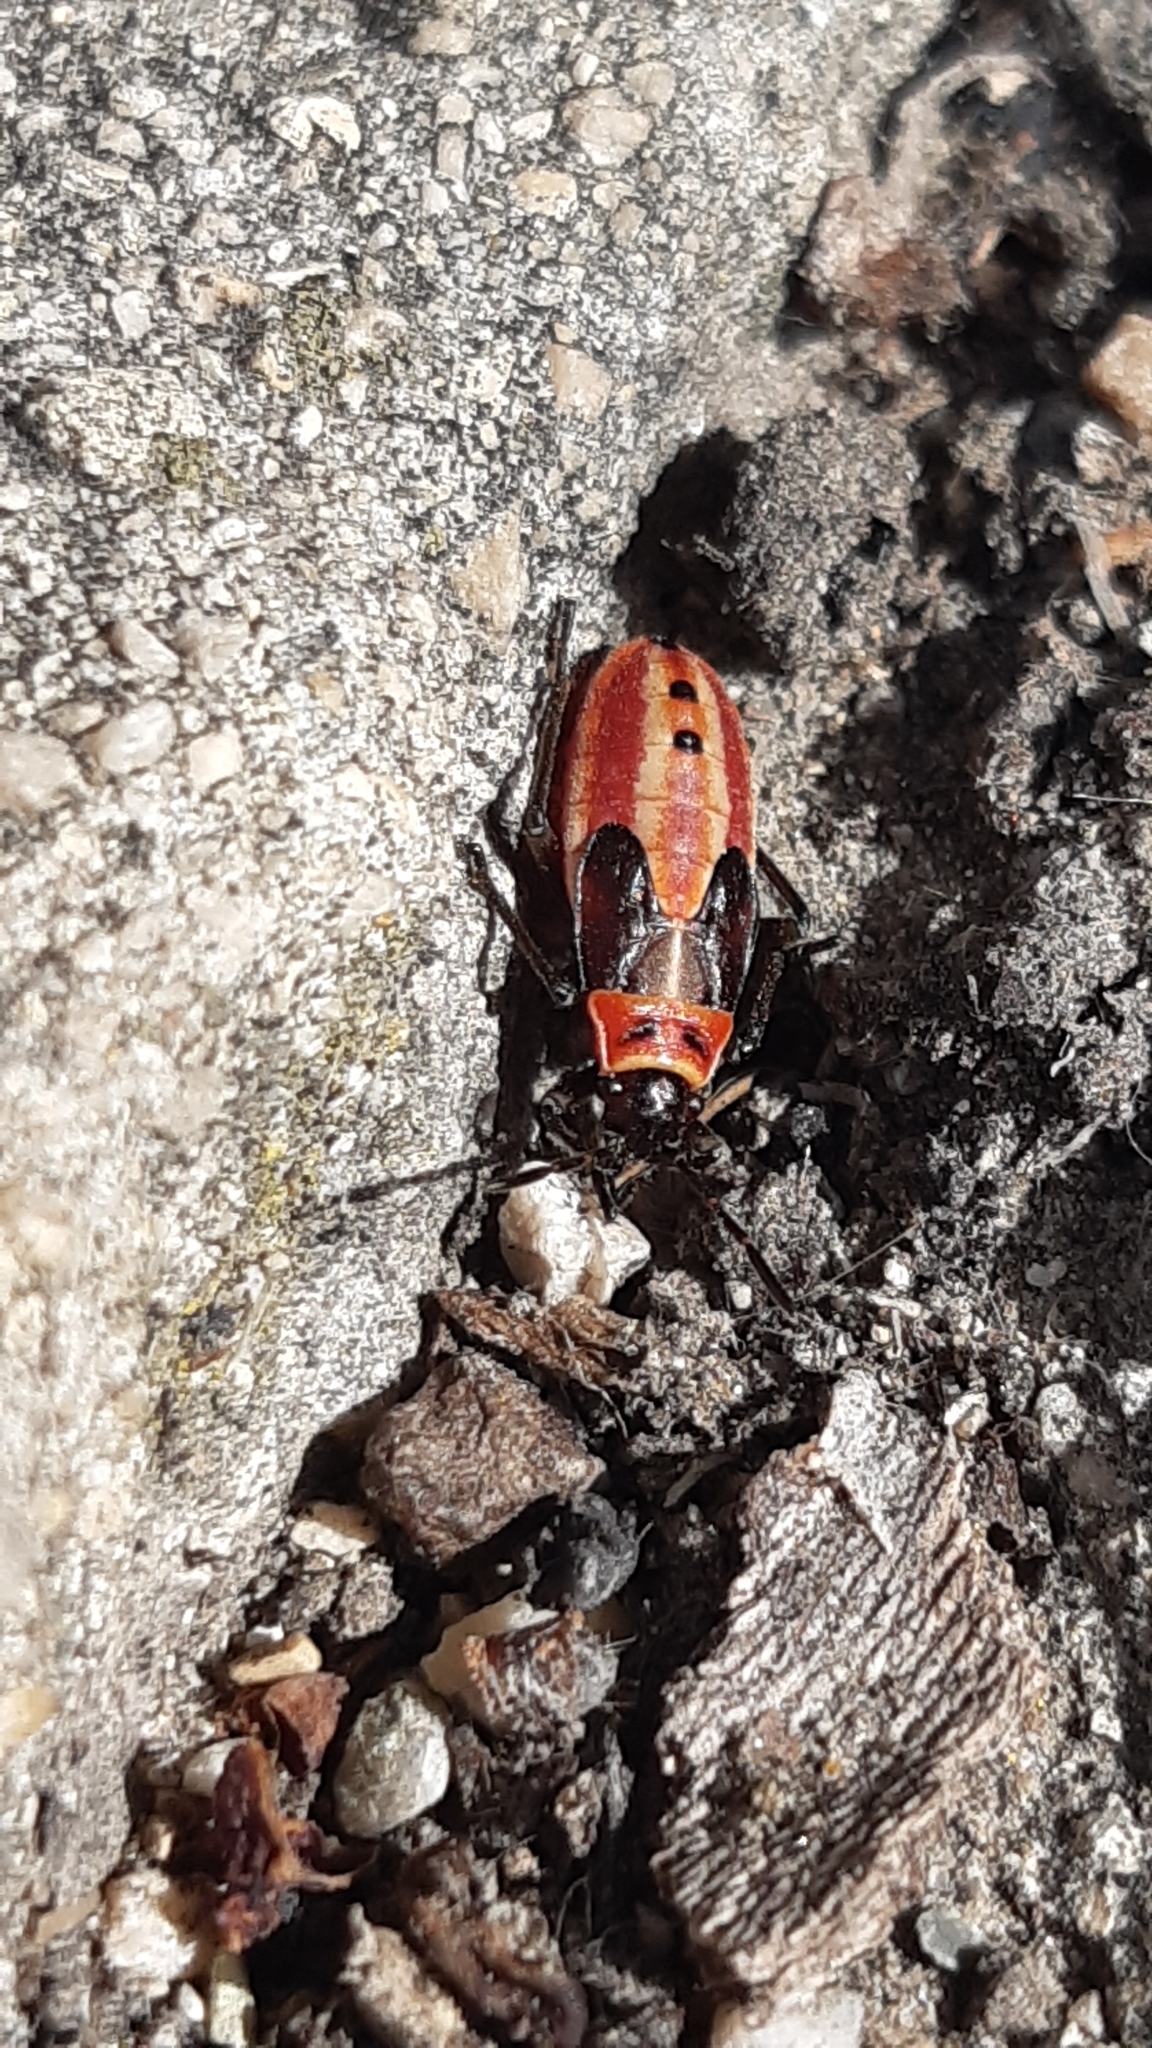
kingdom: Animalia
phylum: Arthropoda
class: Insecta
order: Hemiptera
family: Lygaeidae
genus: Lygaeus
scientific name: Lygaeus creticus
